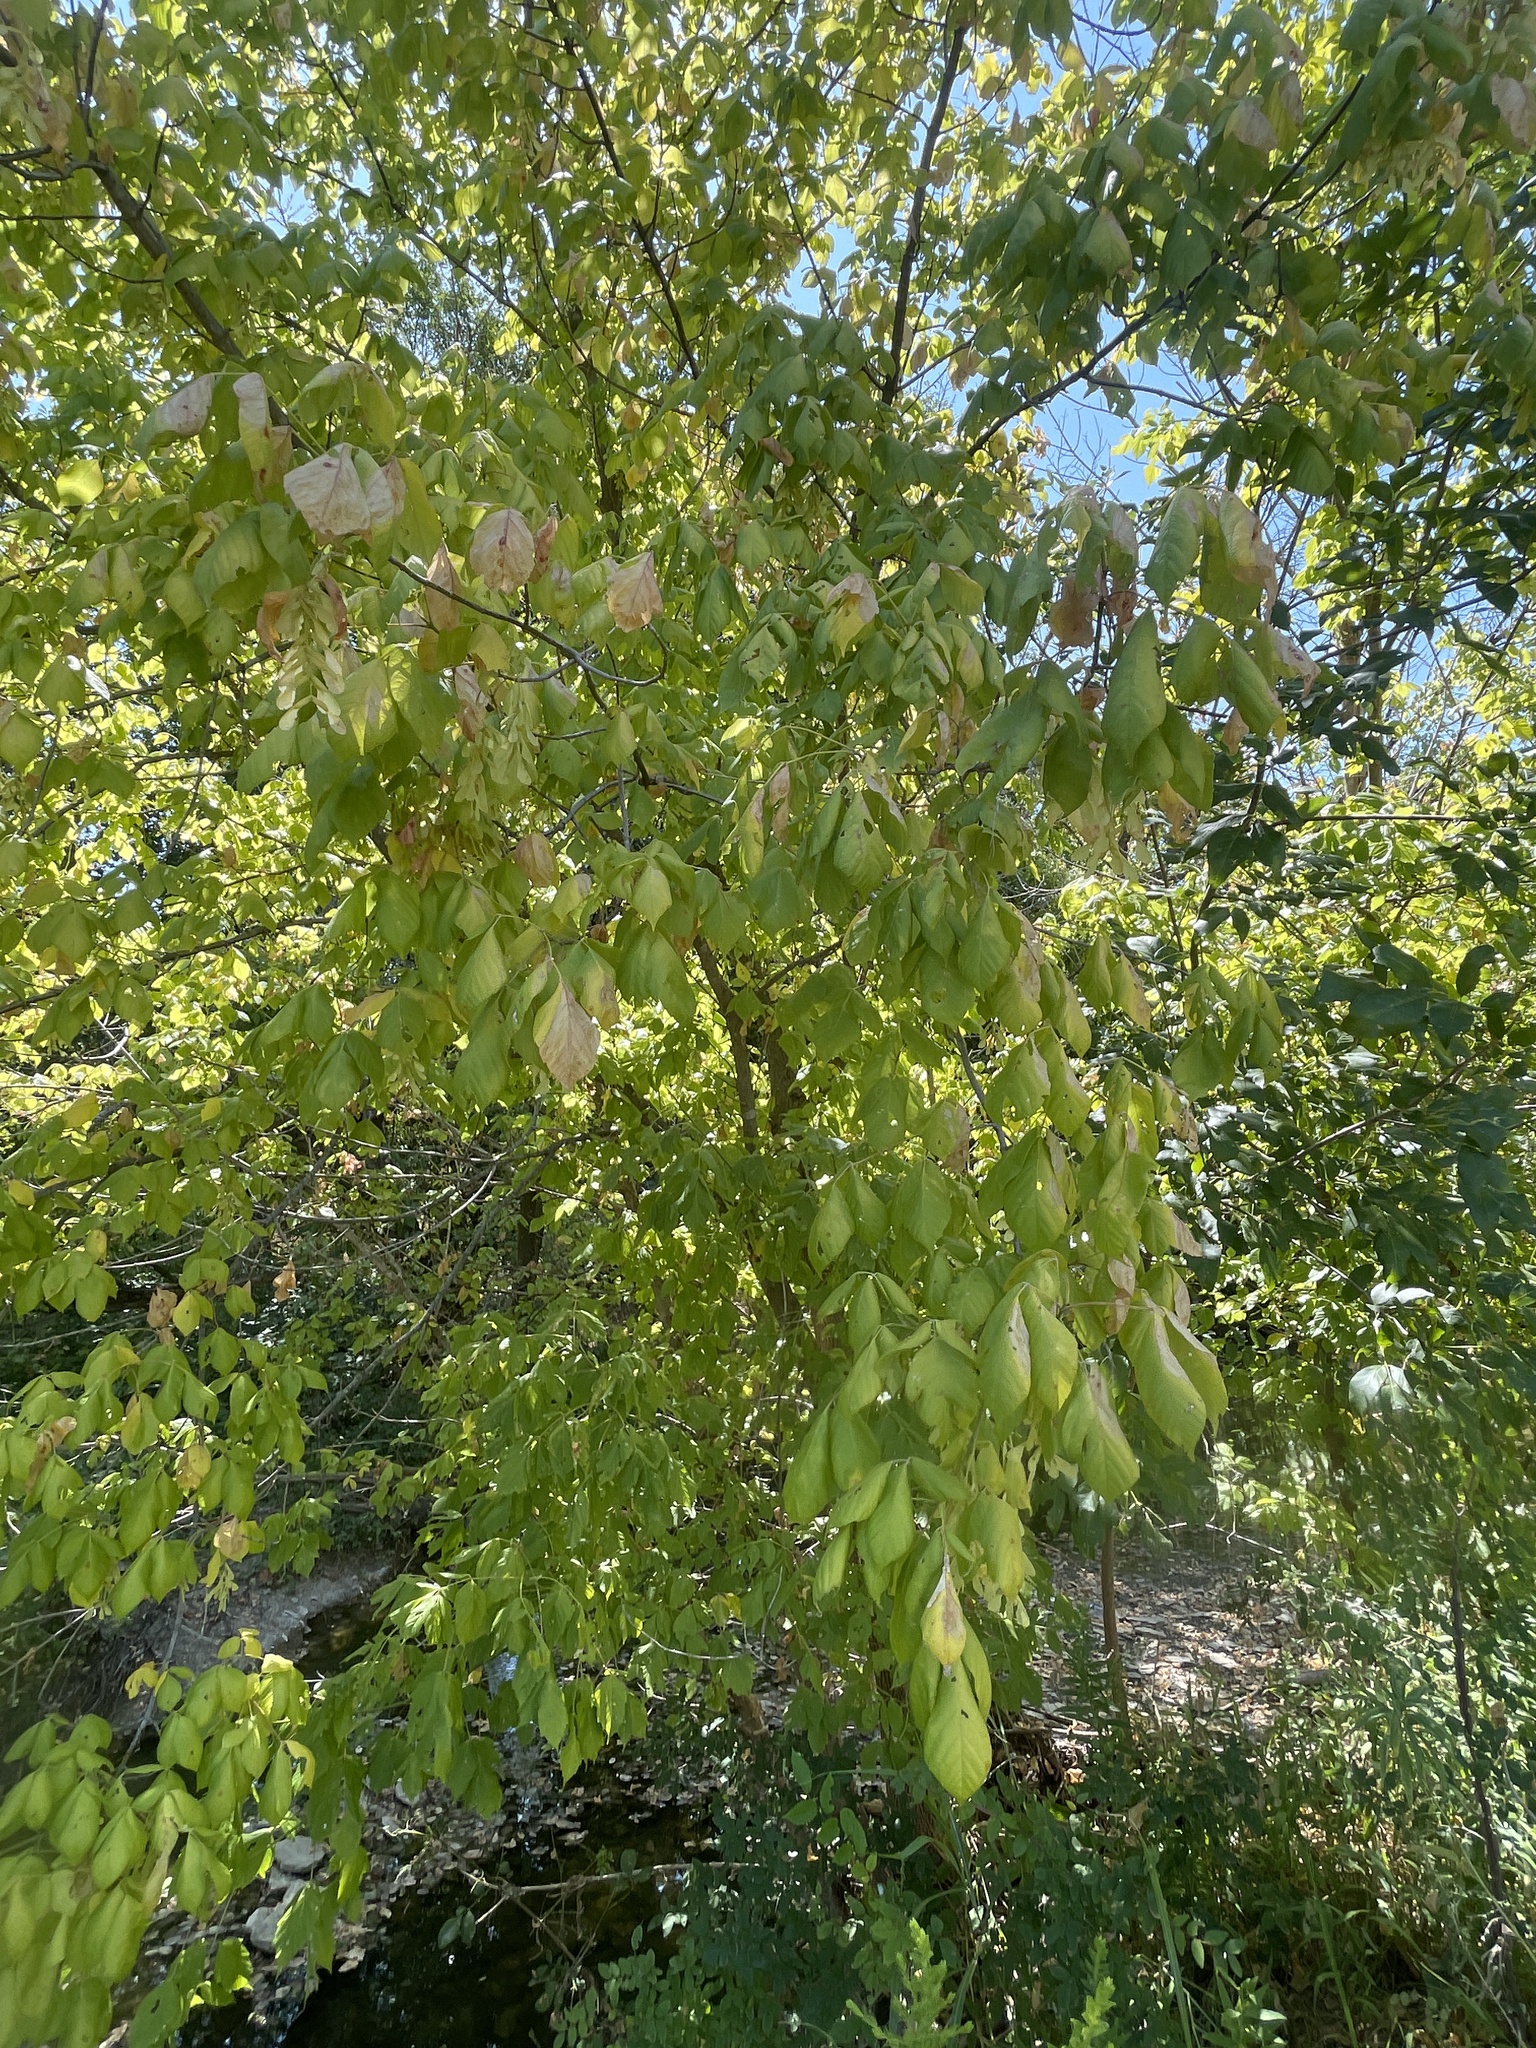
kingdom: Plantae
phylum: Tracheophyta
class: Magnoliopsida
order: Sapindales
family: Sapindaceae
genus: Acer
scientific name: Acer negundo
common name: Ashleaf maple
